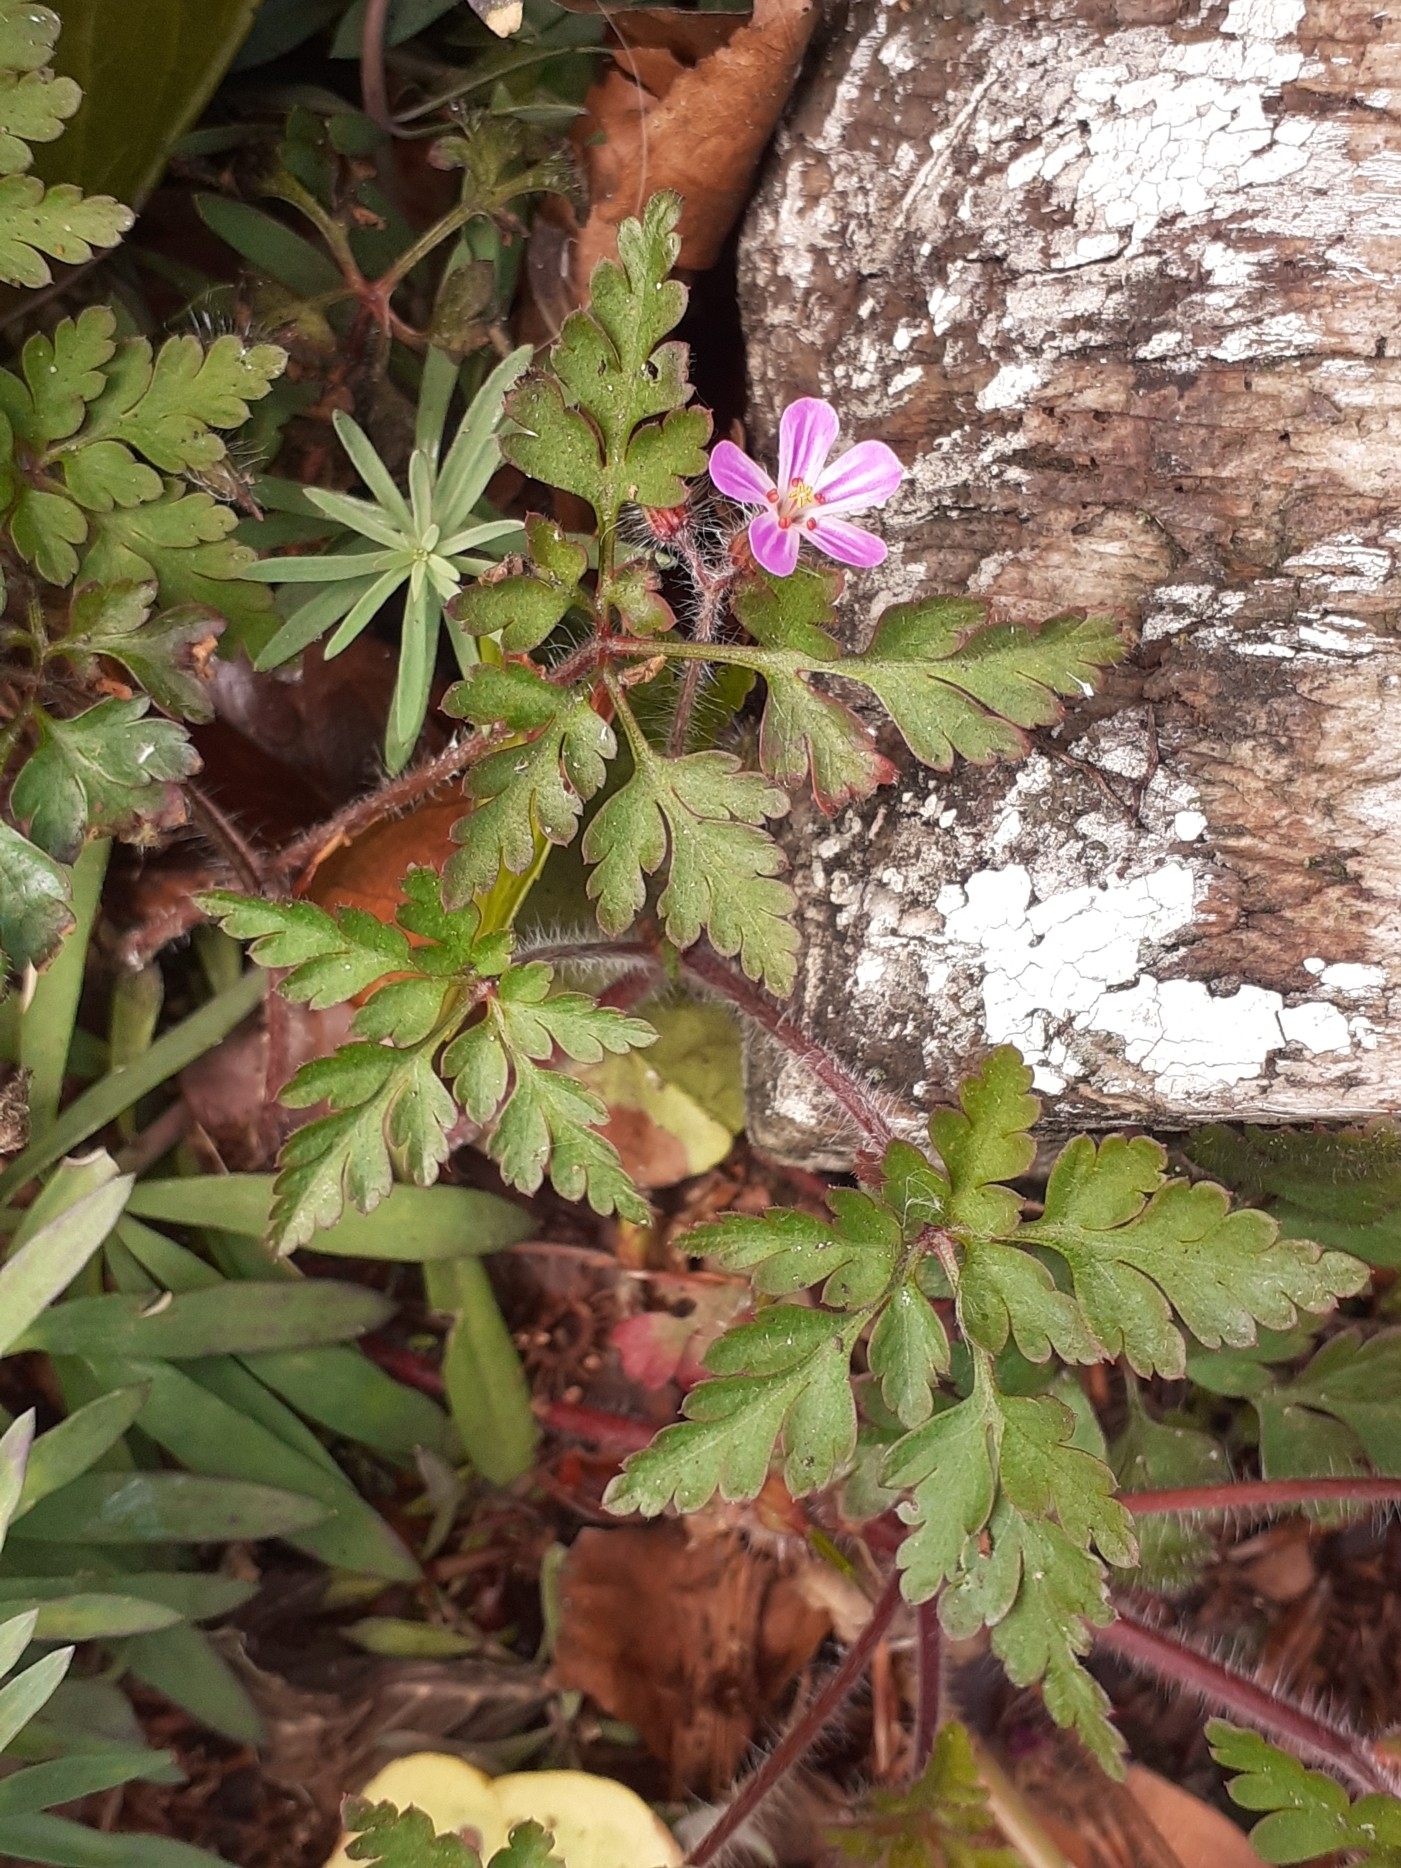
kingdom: Plantae
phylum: Tracheophyta
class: Magnoliopsida
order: Geraniales
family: Geraniaceae
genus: Geranium
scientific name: Geranium robertianum
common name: Herb-robert
